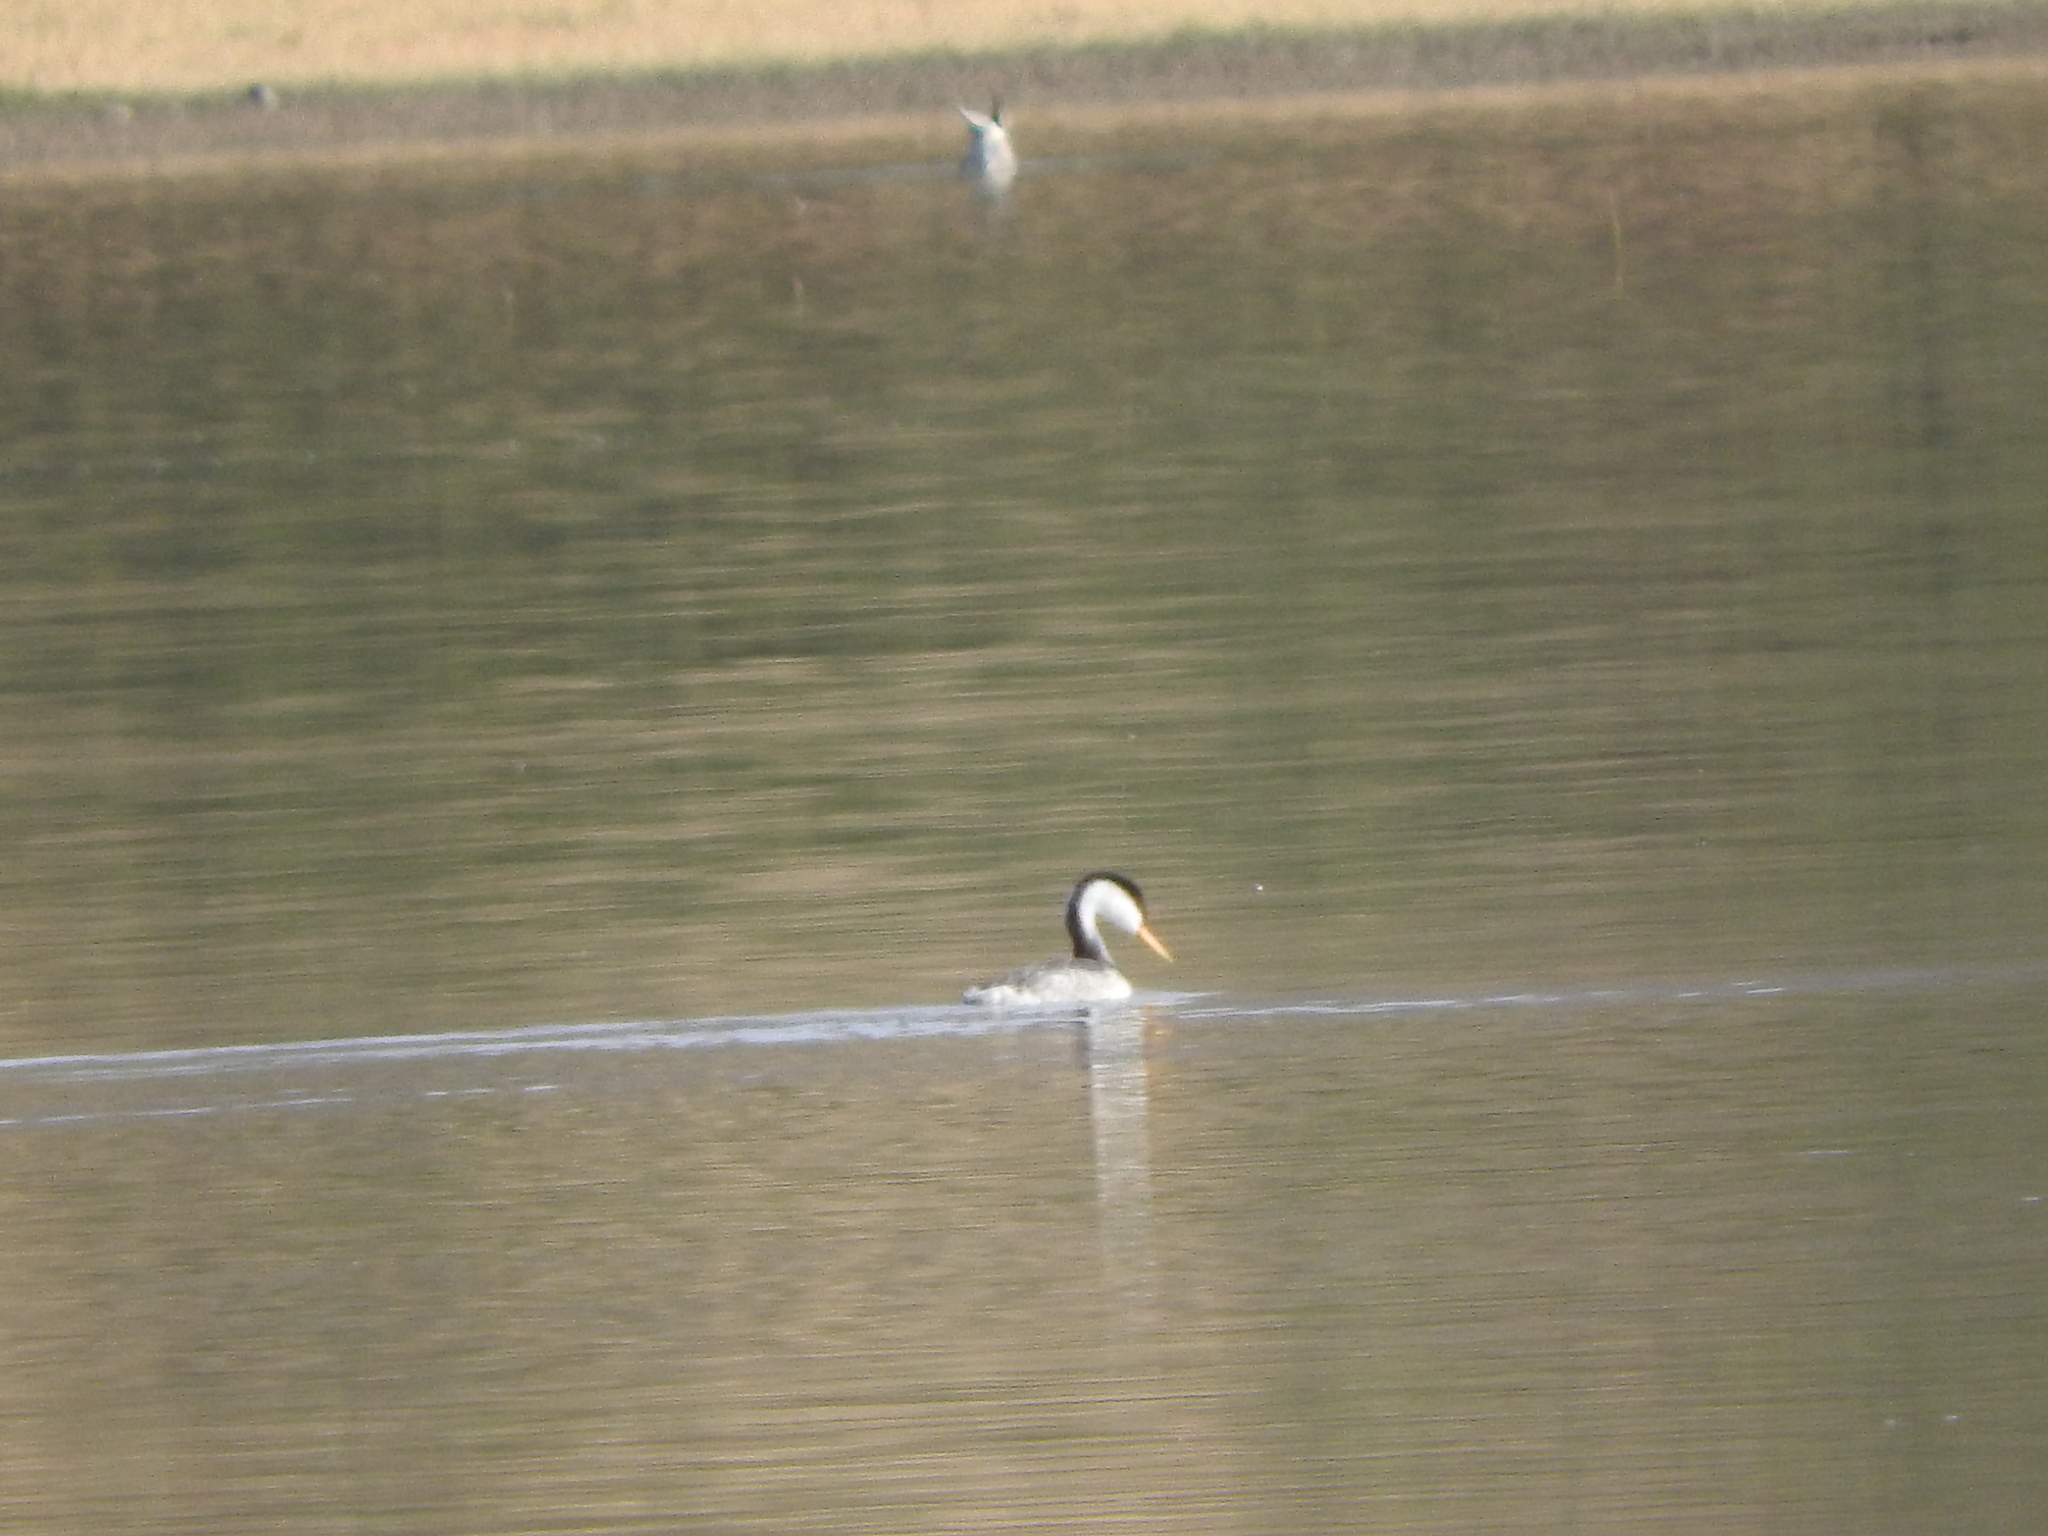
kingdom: Animalia
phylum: Chordata
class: Aves
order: Podicipediformes
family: Podicipedidae
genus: Aechmophorus
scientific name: Aechmophorus clarkii
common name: Clark's grebe
